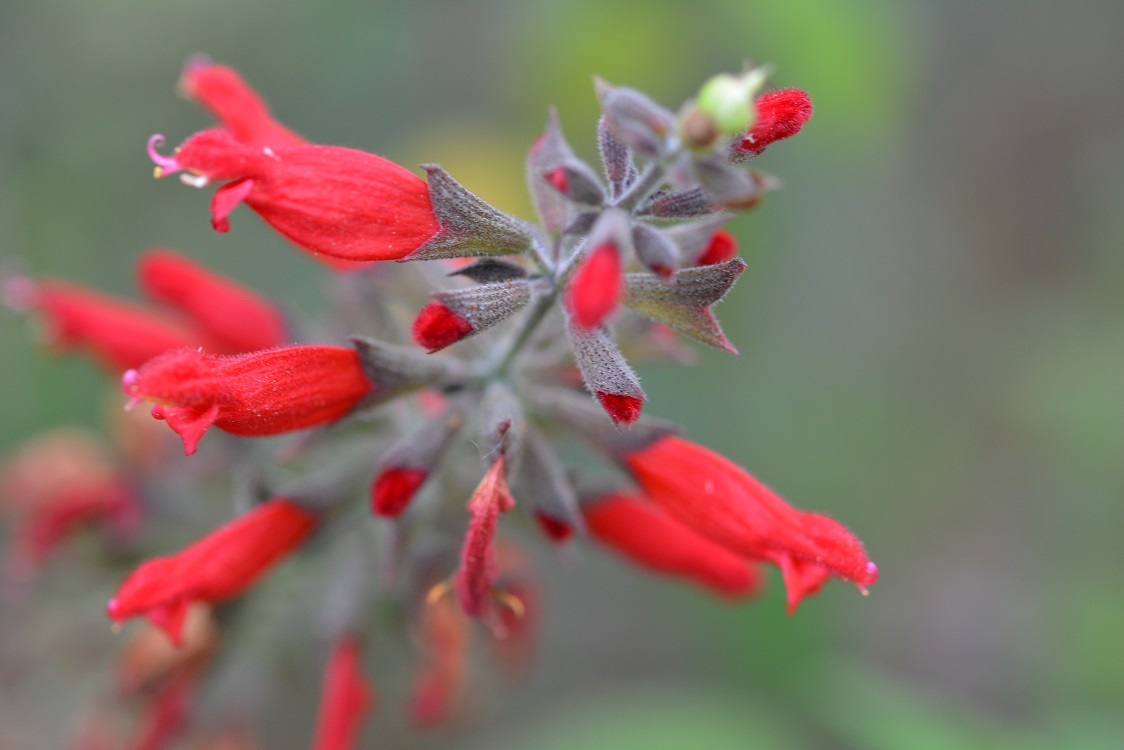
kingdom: Plantae
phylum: Tracheophyta
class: Magnoliopsida
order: Lamiales
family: Lamiaceae
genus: Salvia
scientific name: Salvia karwinskii
